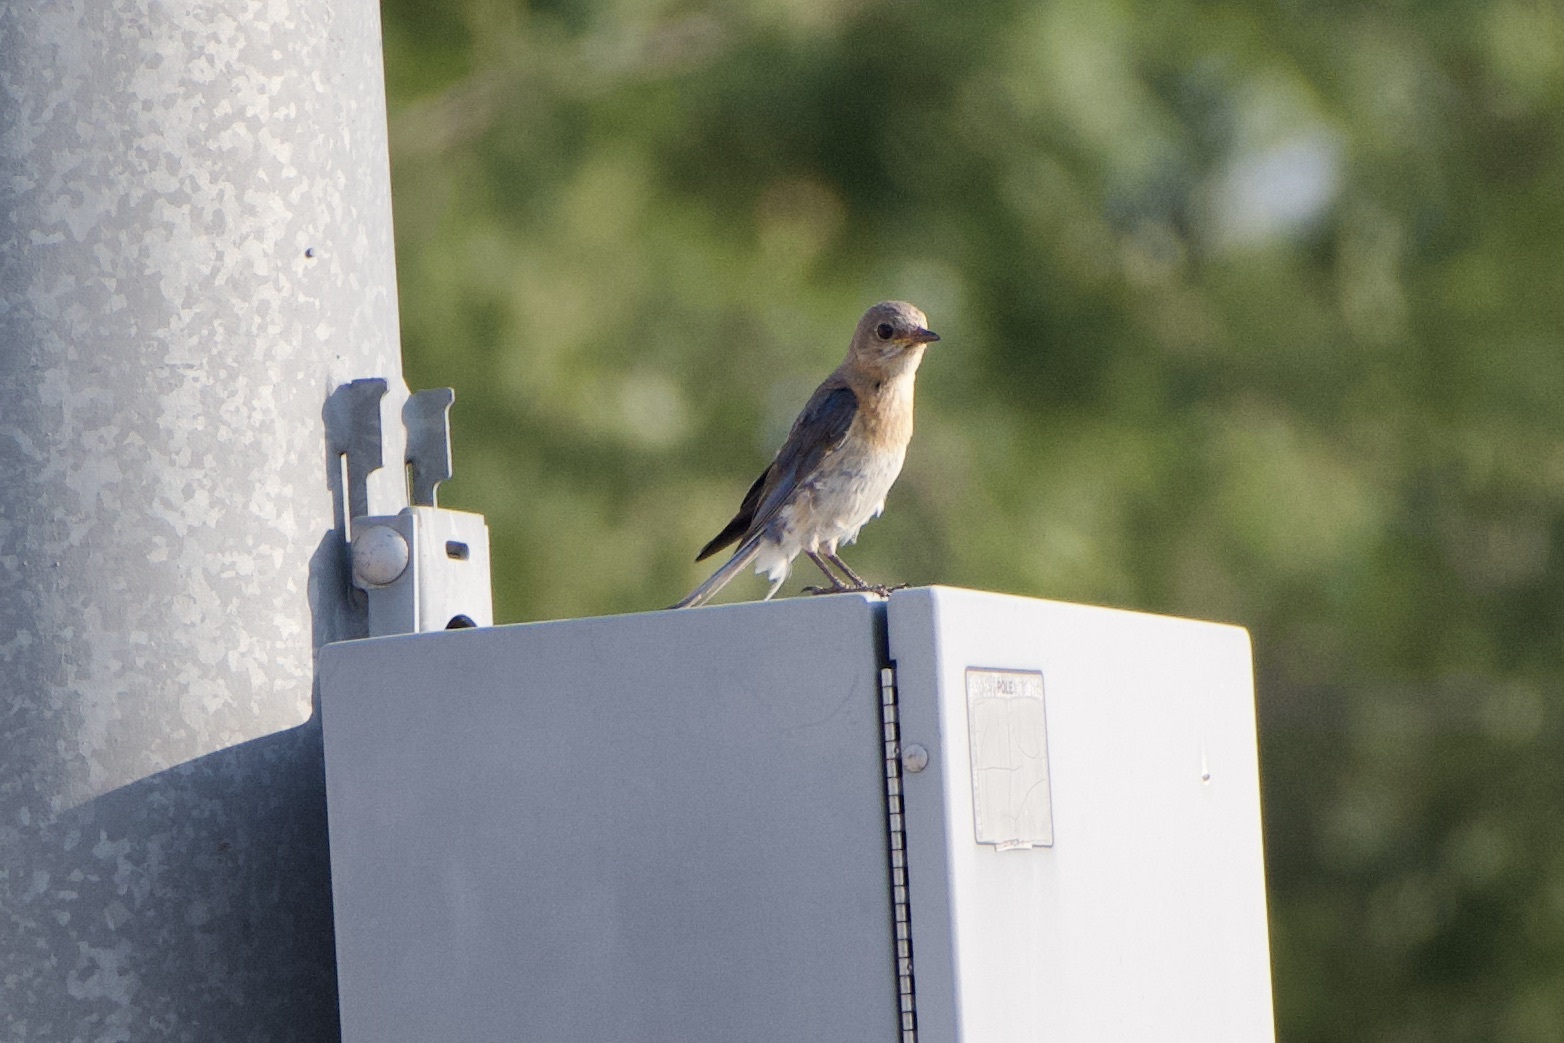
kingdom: Animalia
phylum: Chordata
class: Aves
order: Passeriformes
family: Turdidae
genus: Sialia
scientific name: Sialia sialis
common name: Eastern bluebird
